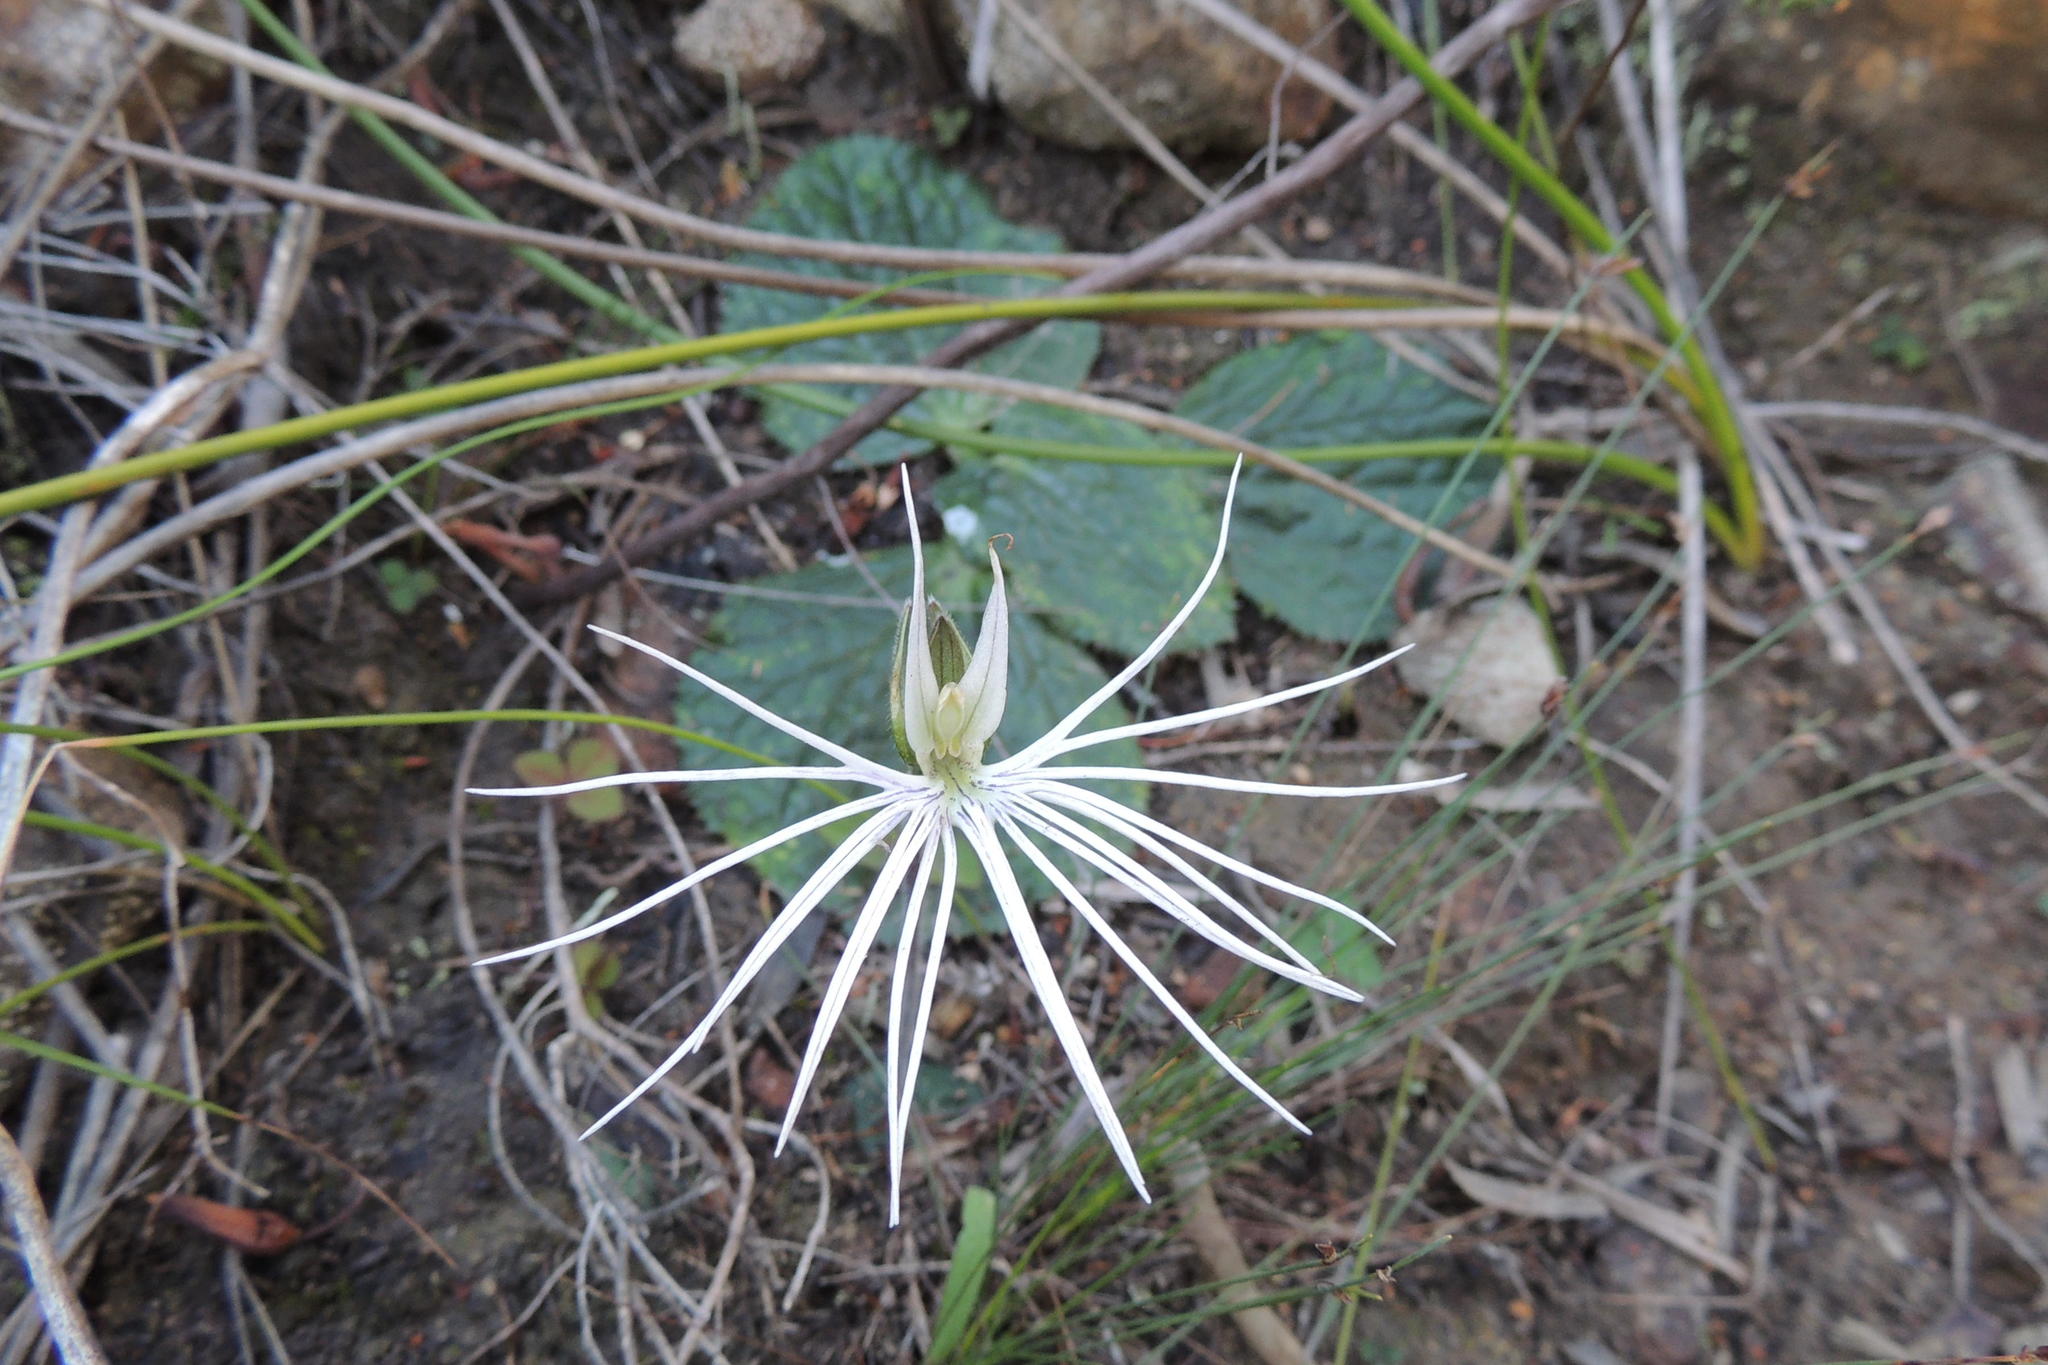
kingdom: Plantae
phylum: Tracheophyta
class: Liliopsida
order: Asparagales
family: Orchidaceae
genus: Holothrix
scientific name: Holothrix burmanniana
